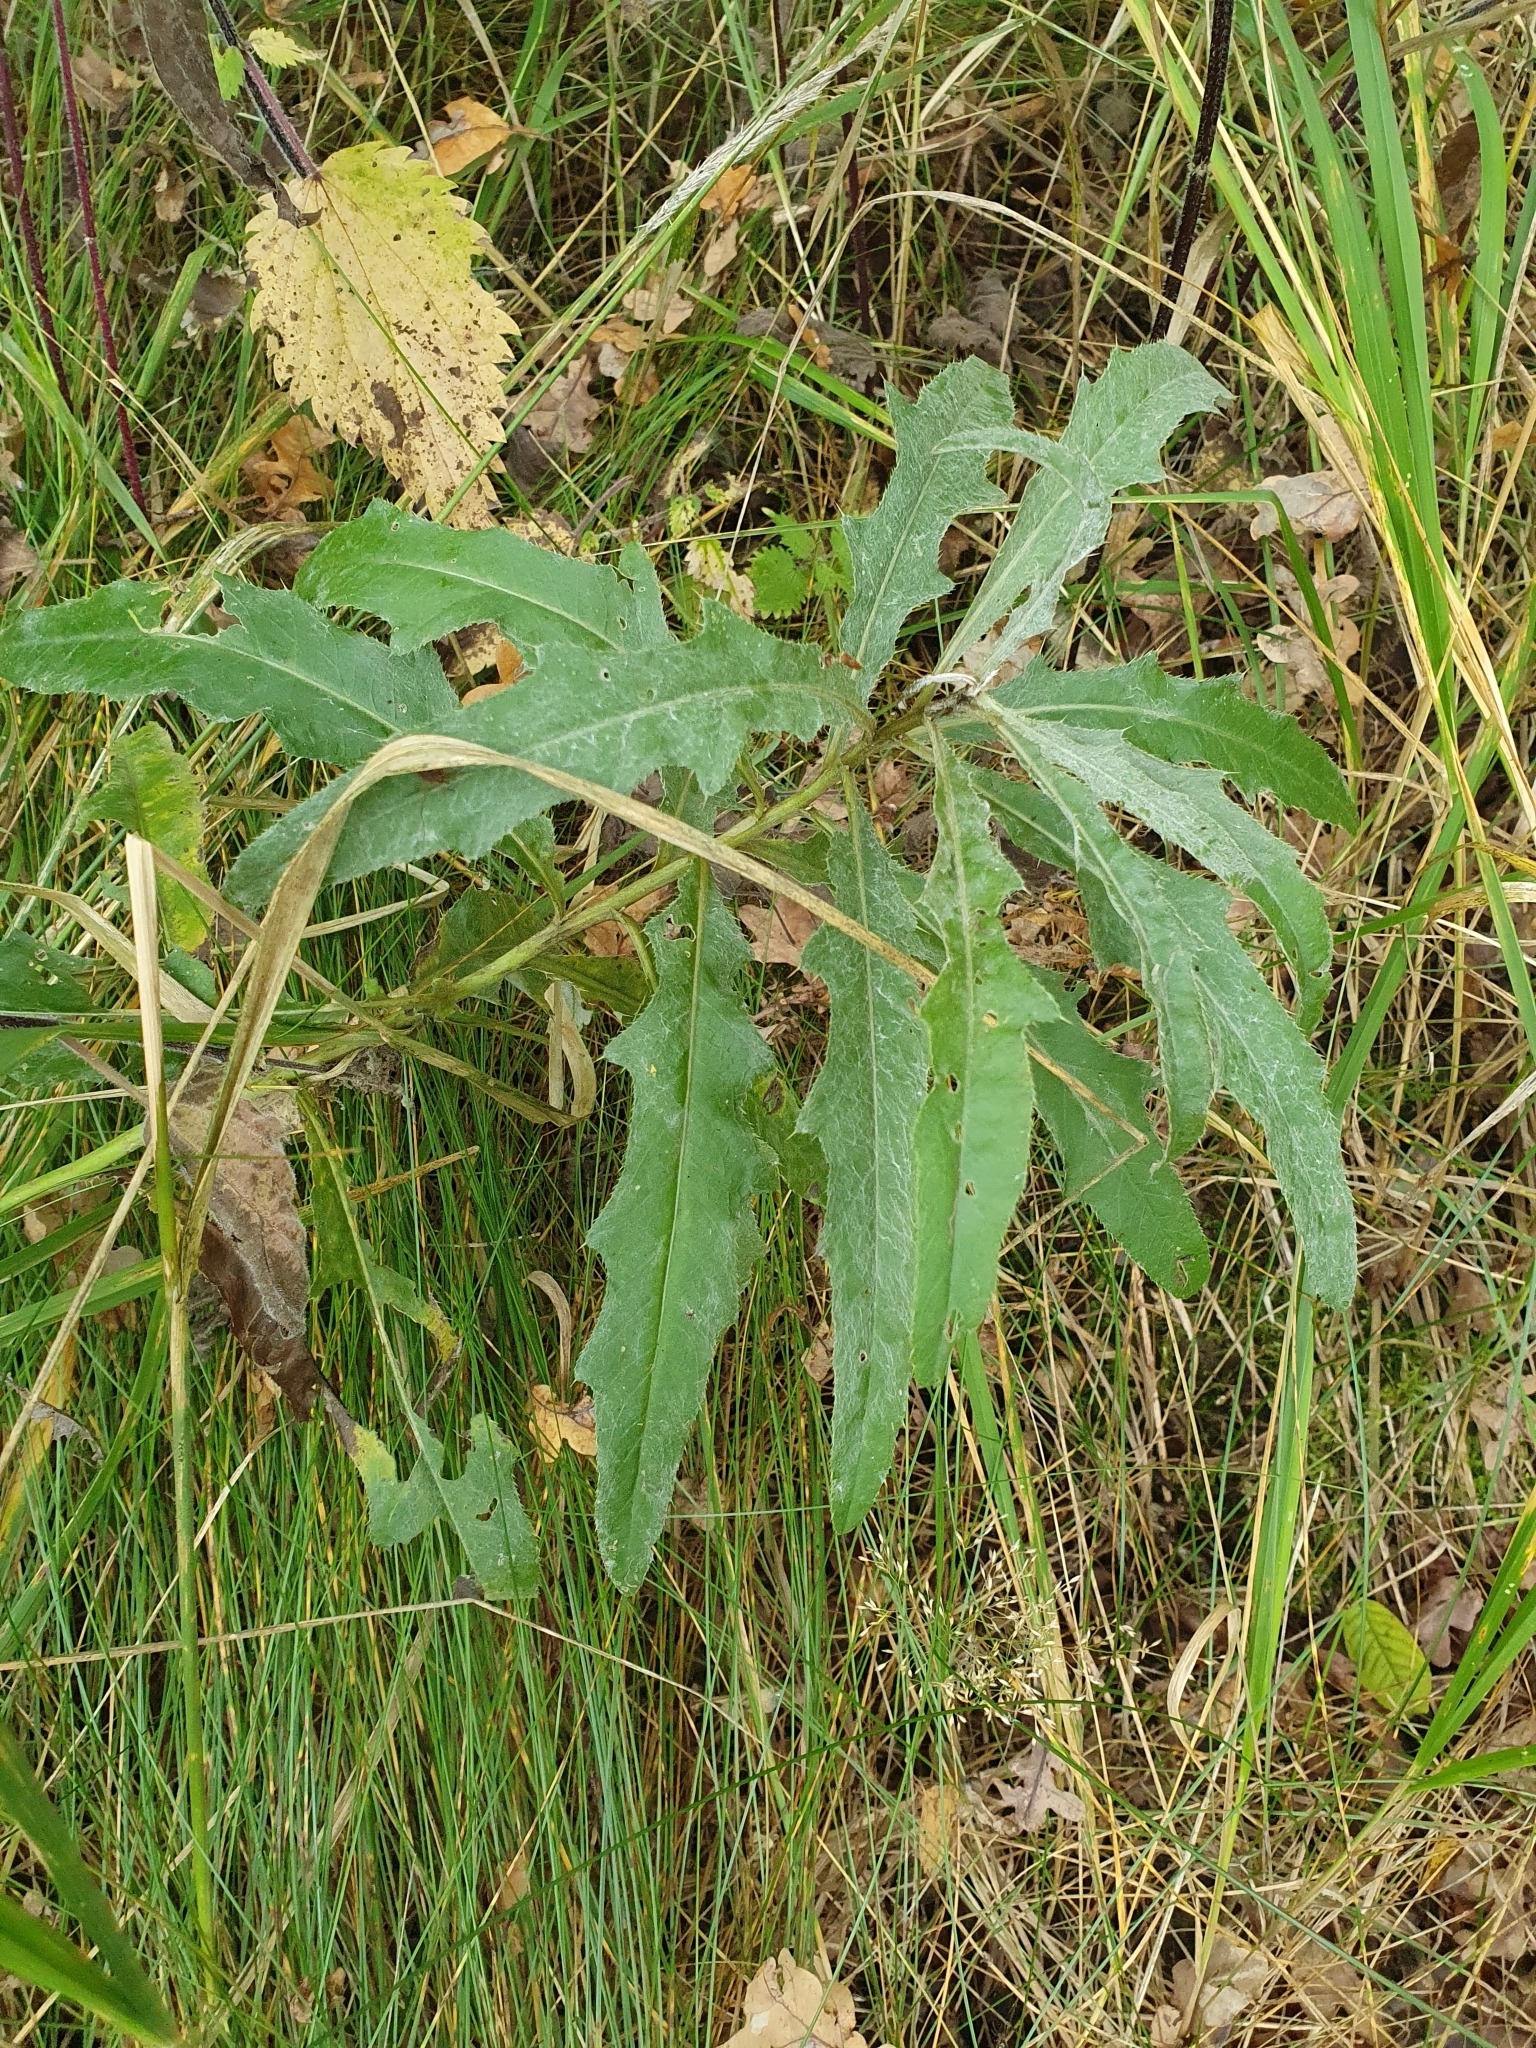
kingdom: Plantae
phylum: Tracheophyta
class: Magnoliopsida
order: Asterales
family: Asteraceae
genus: Cirsium
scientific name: Cirsium arvense
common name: Creeping thistle
